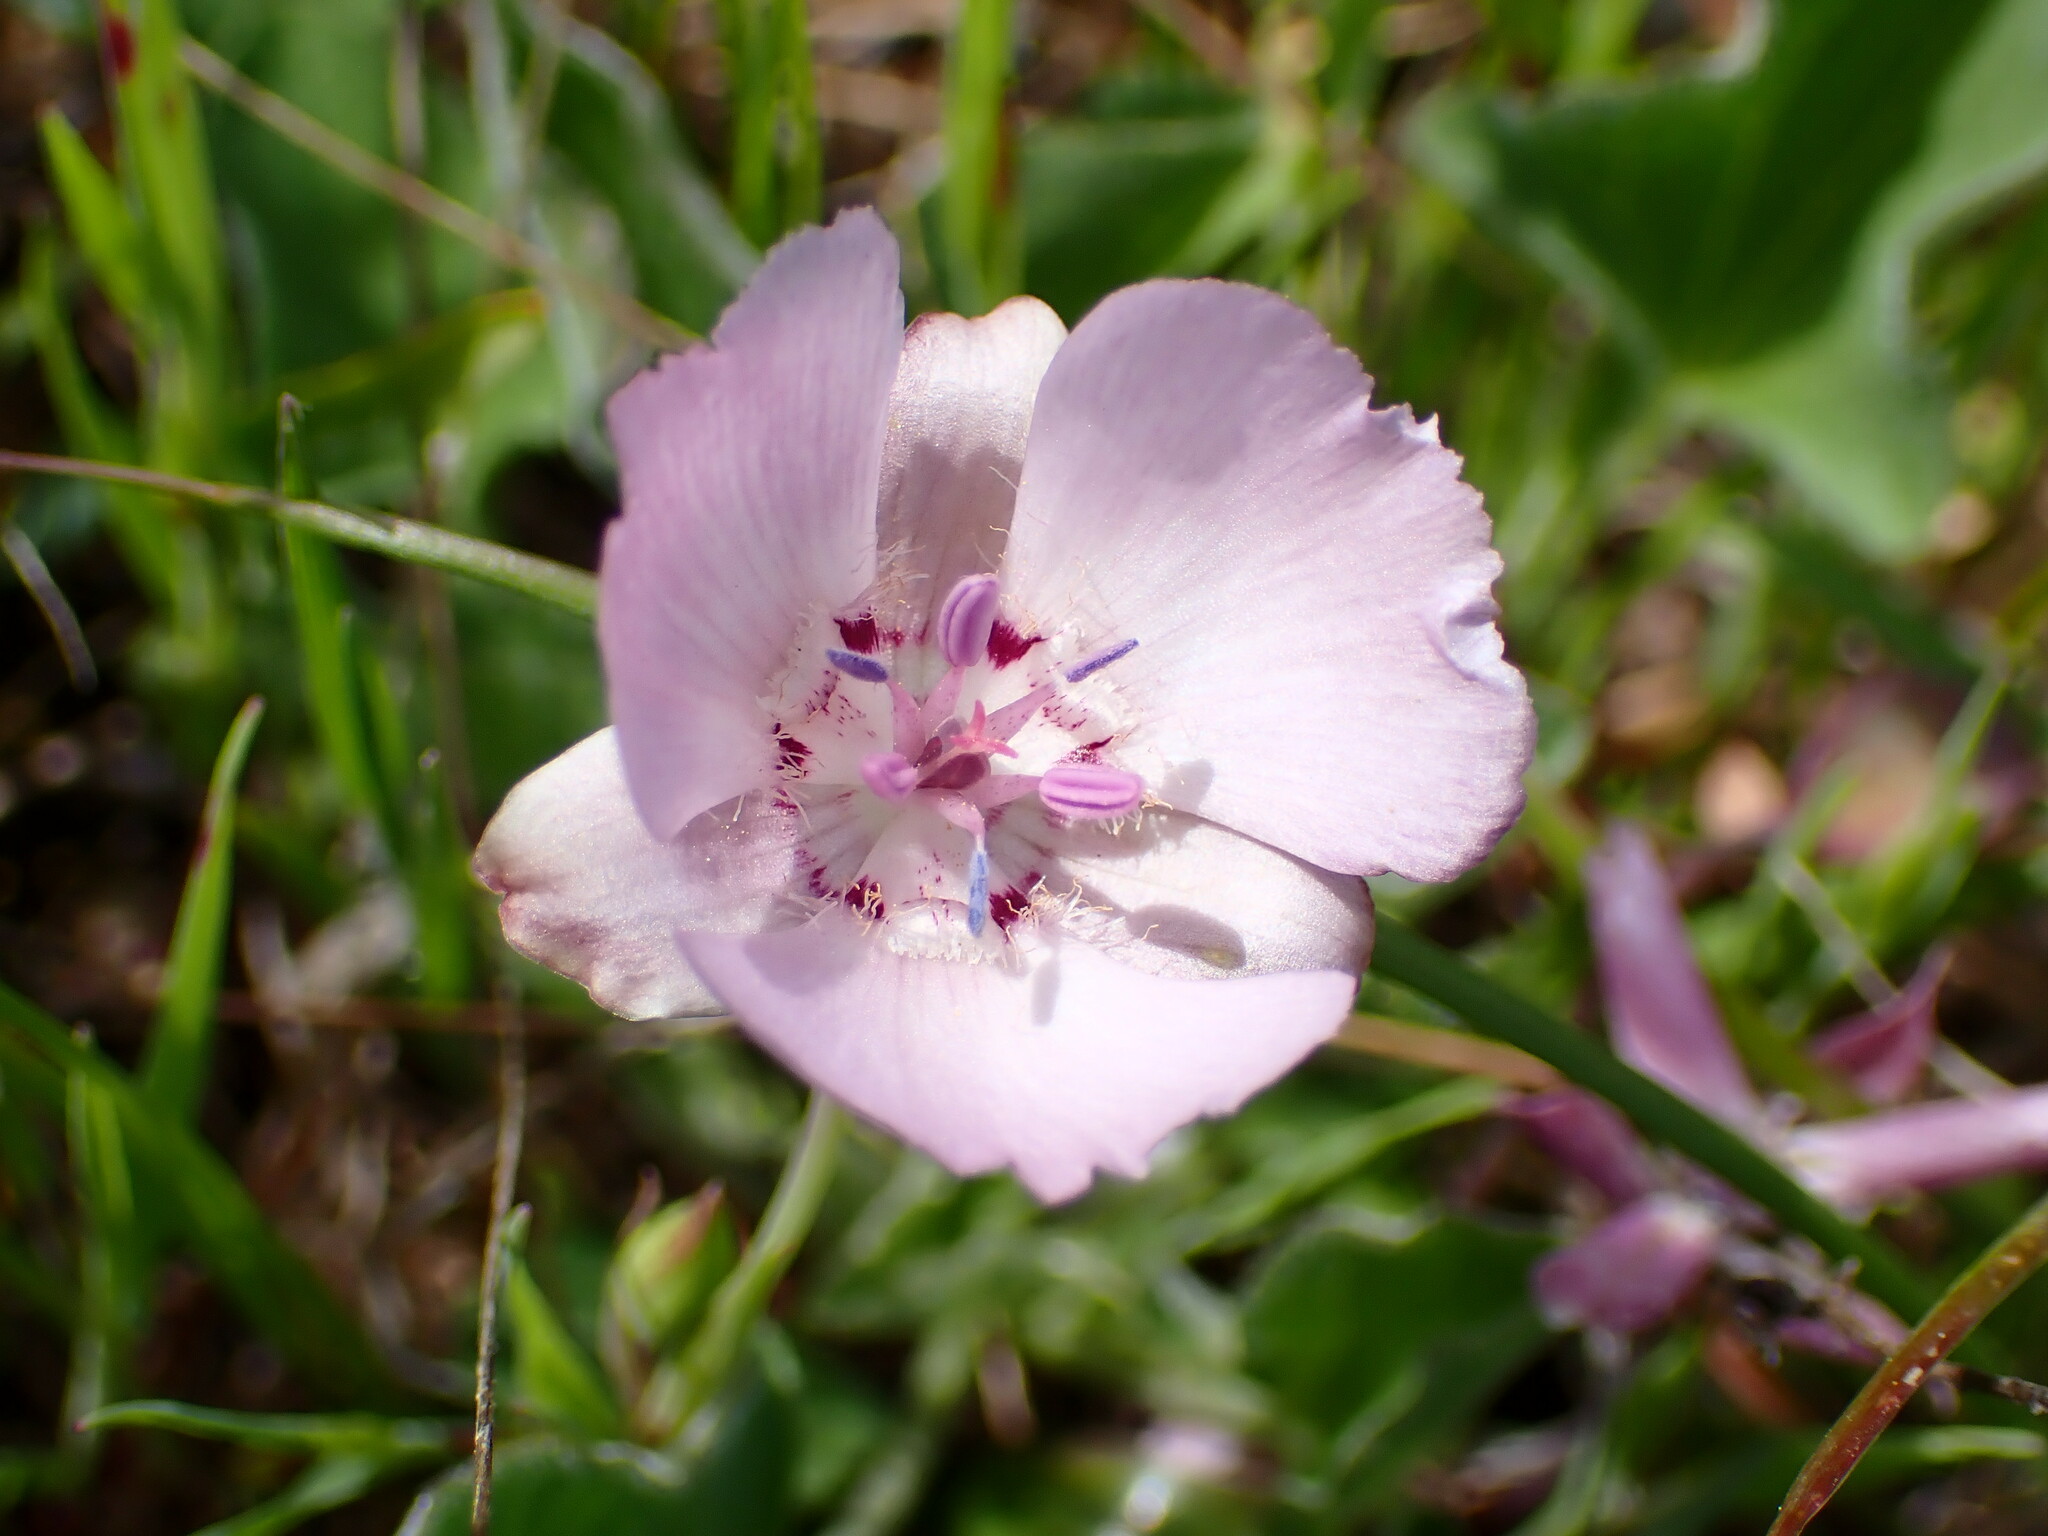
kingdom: Plantae
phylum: Tracheophyta
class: Liliopsida
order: Liliales
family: Liliaceae
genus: Calochortus
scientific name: Calochortus umbellatus
